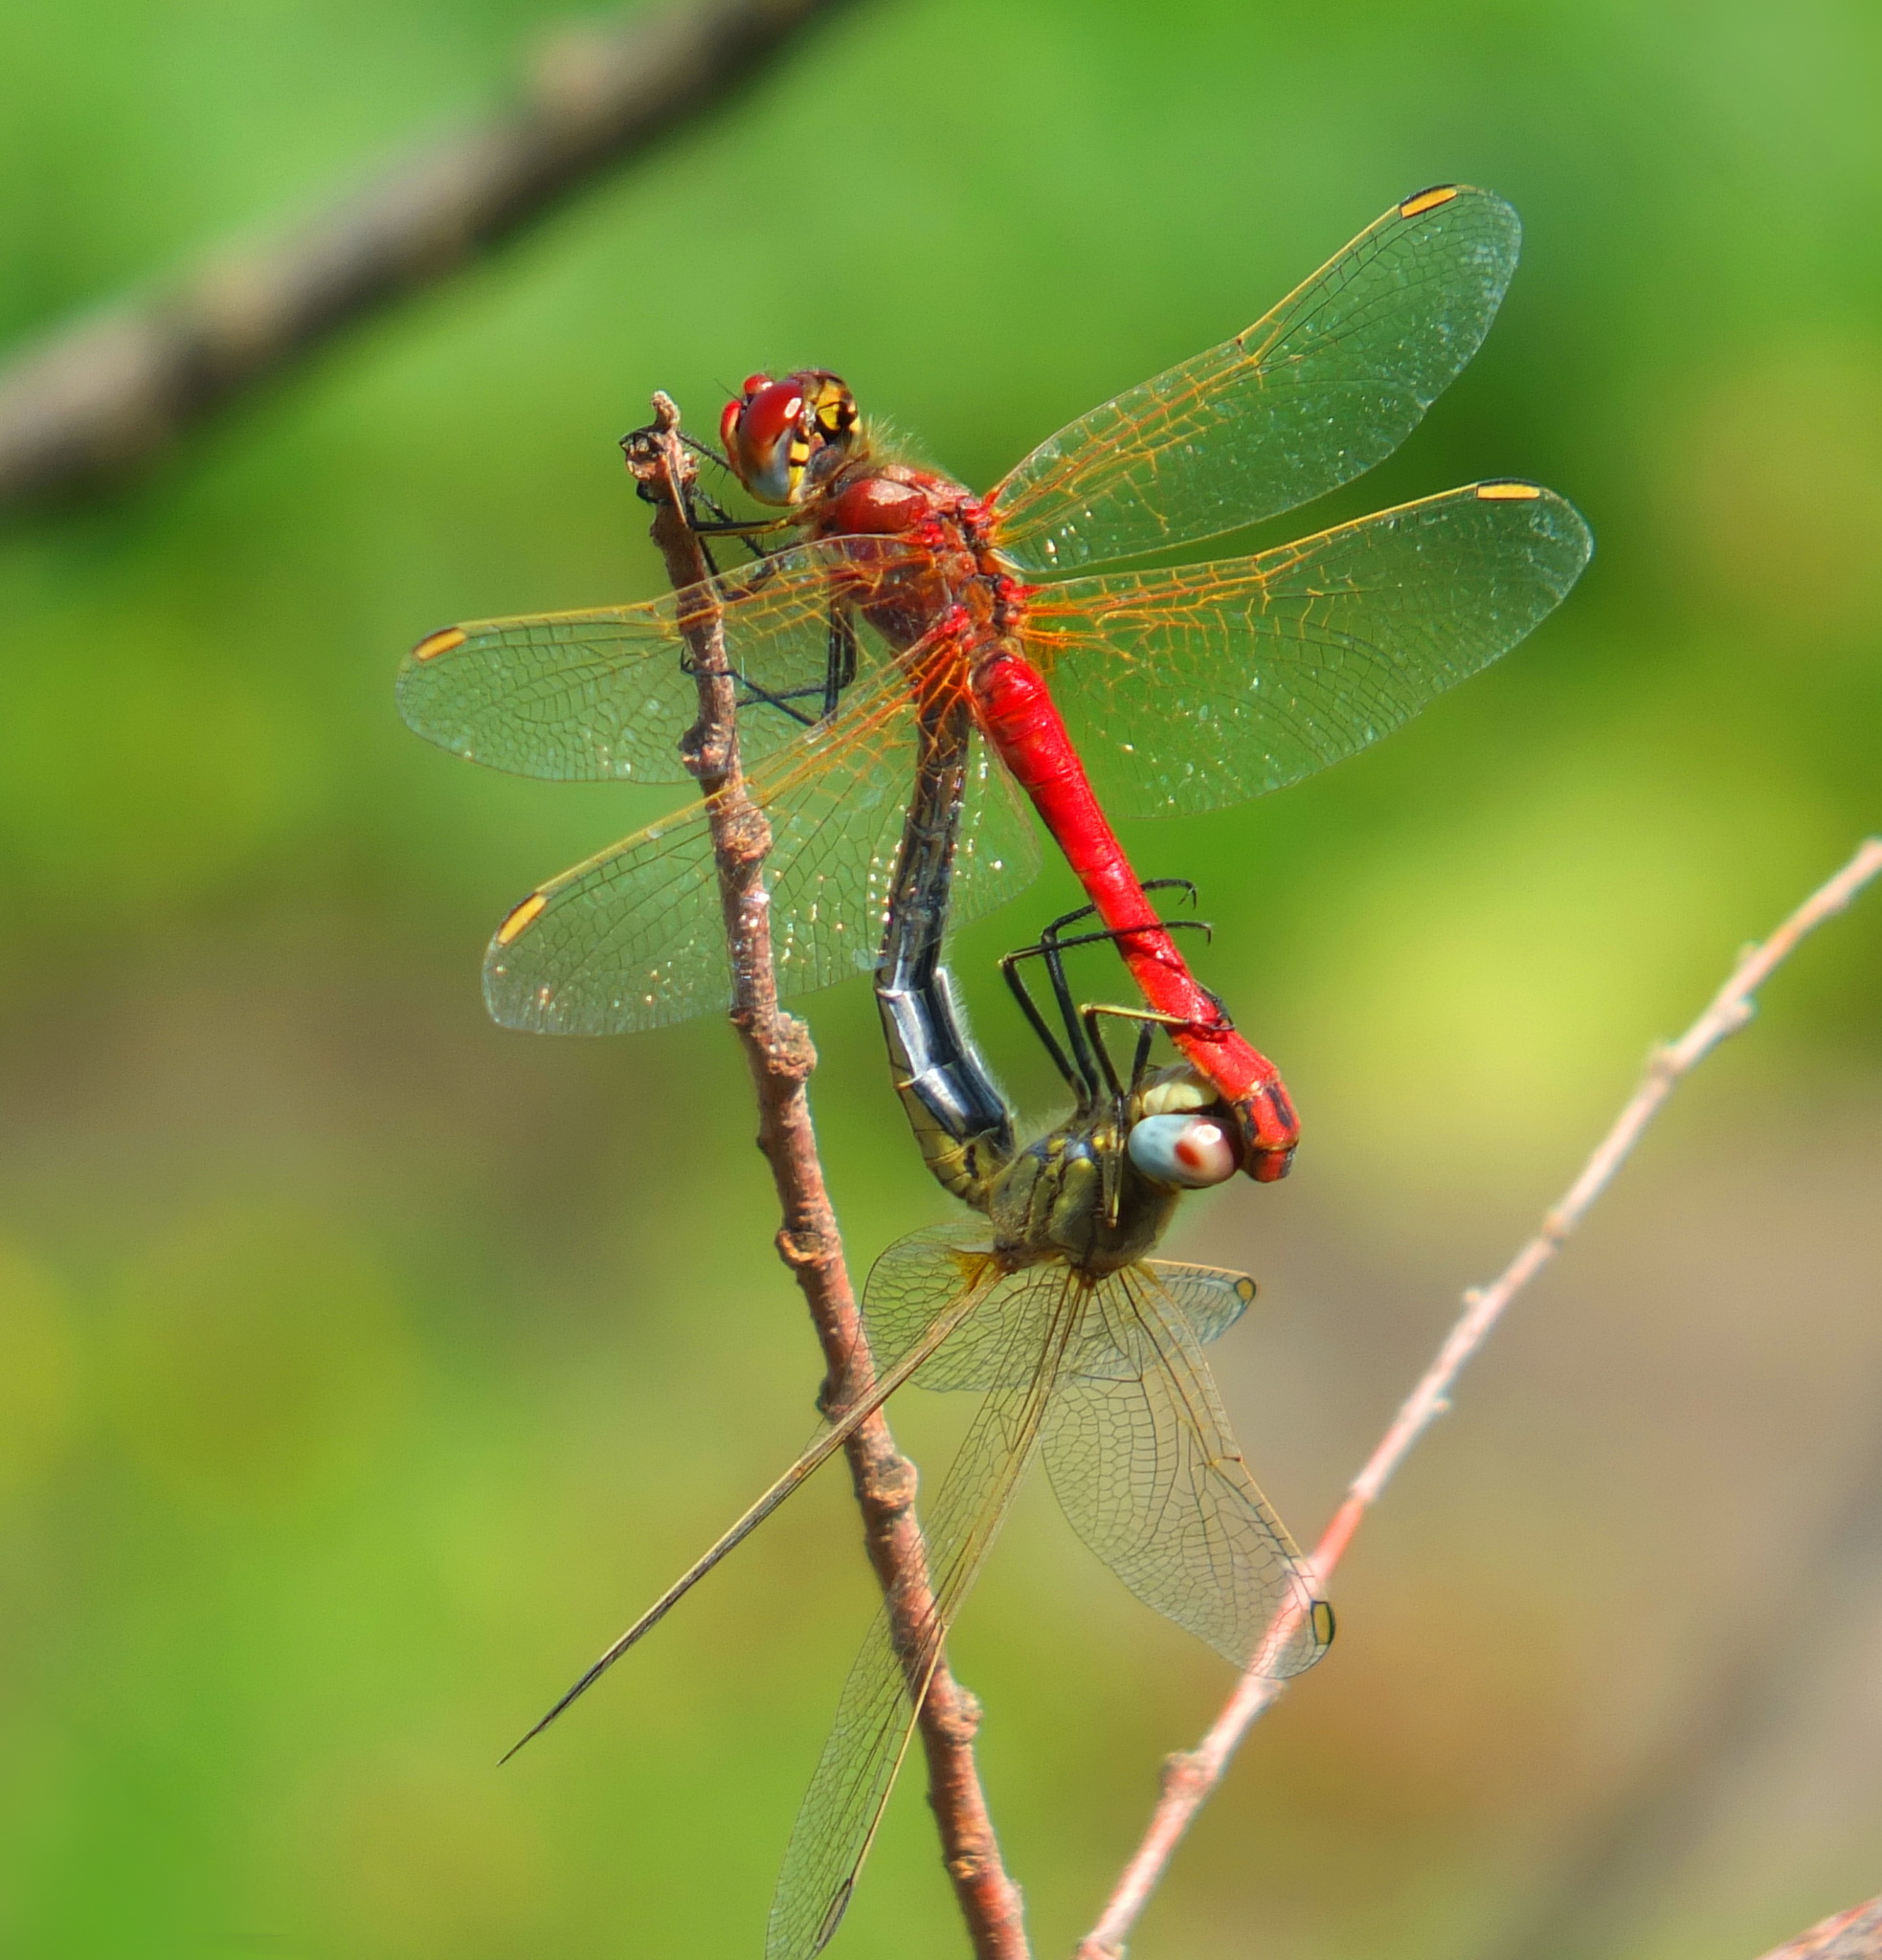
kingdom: Animalia
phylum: Arthropoda
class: Insecta
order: Odonata
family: Libellulidae
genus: Sympetrum
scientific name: Sympetrum fonscolombii
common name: Red-veined darter
